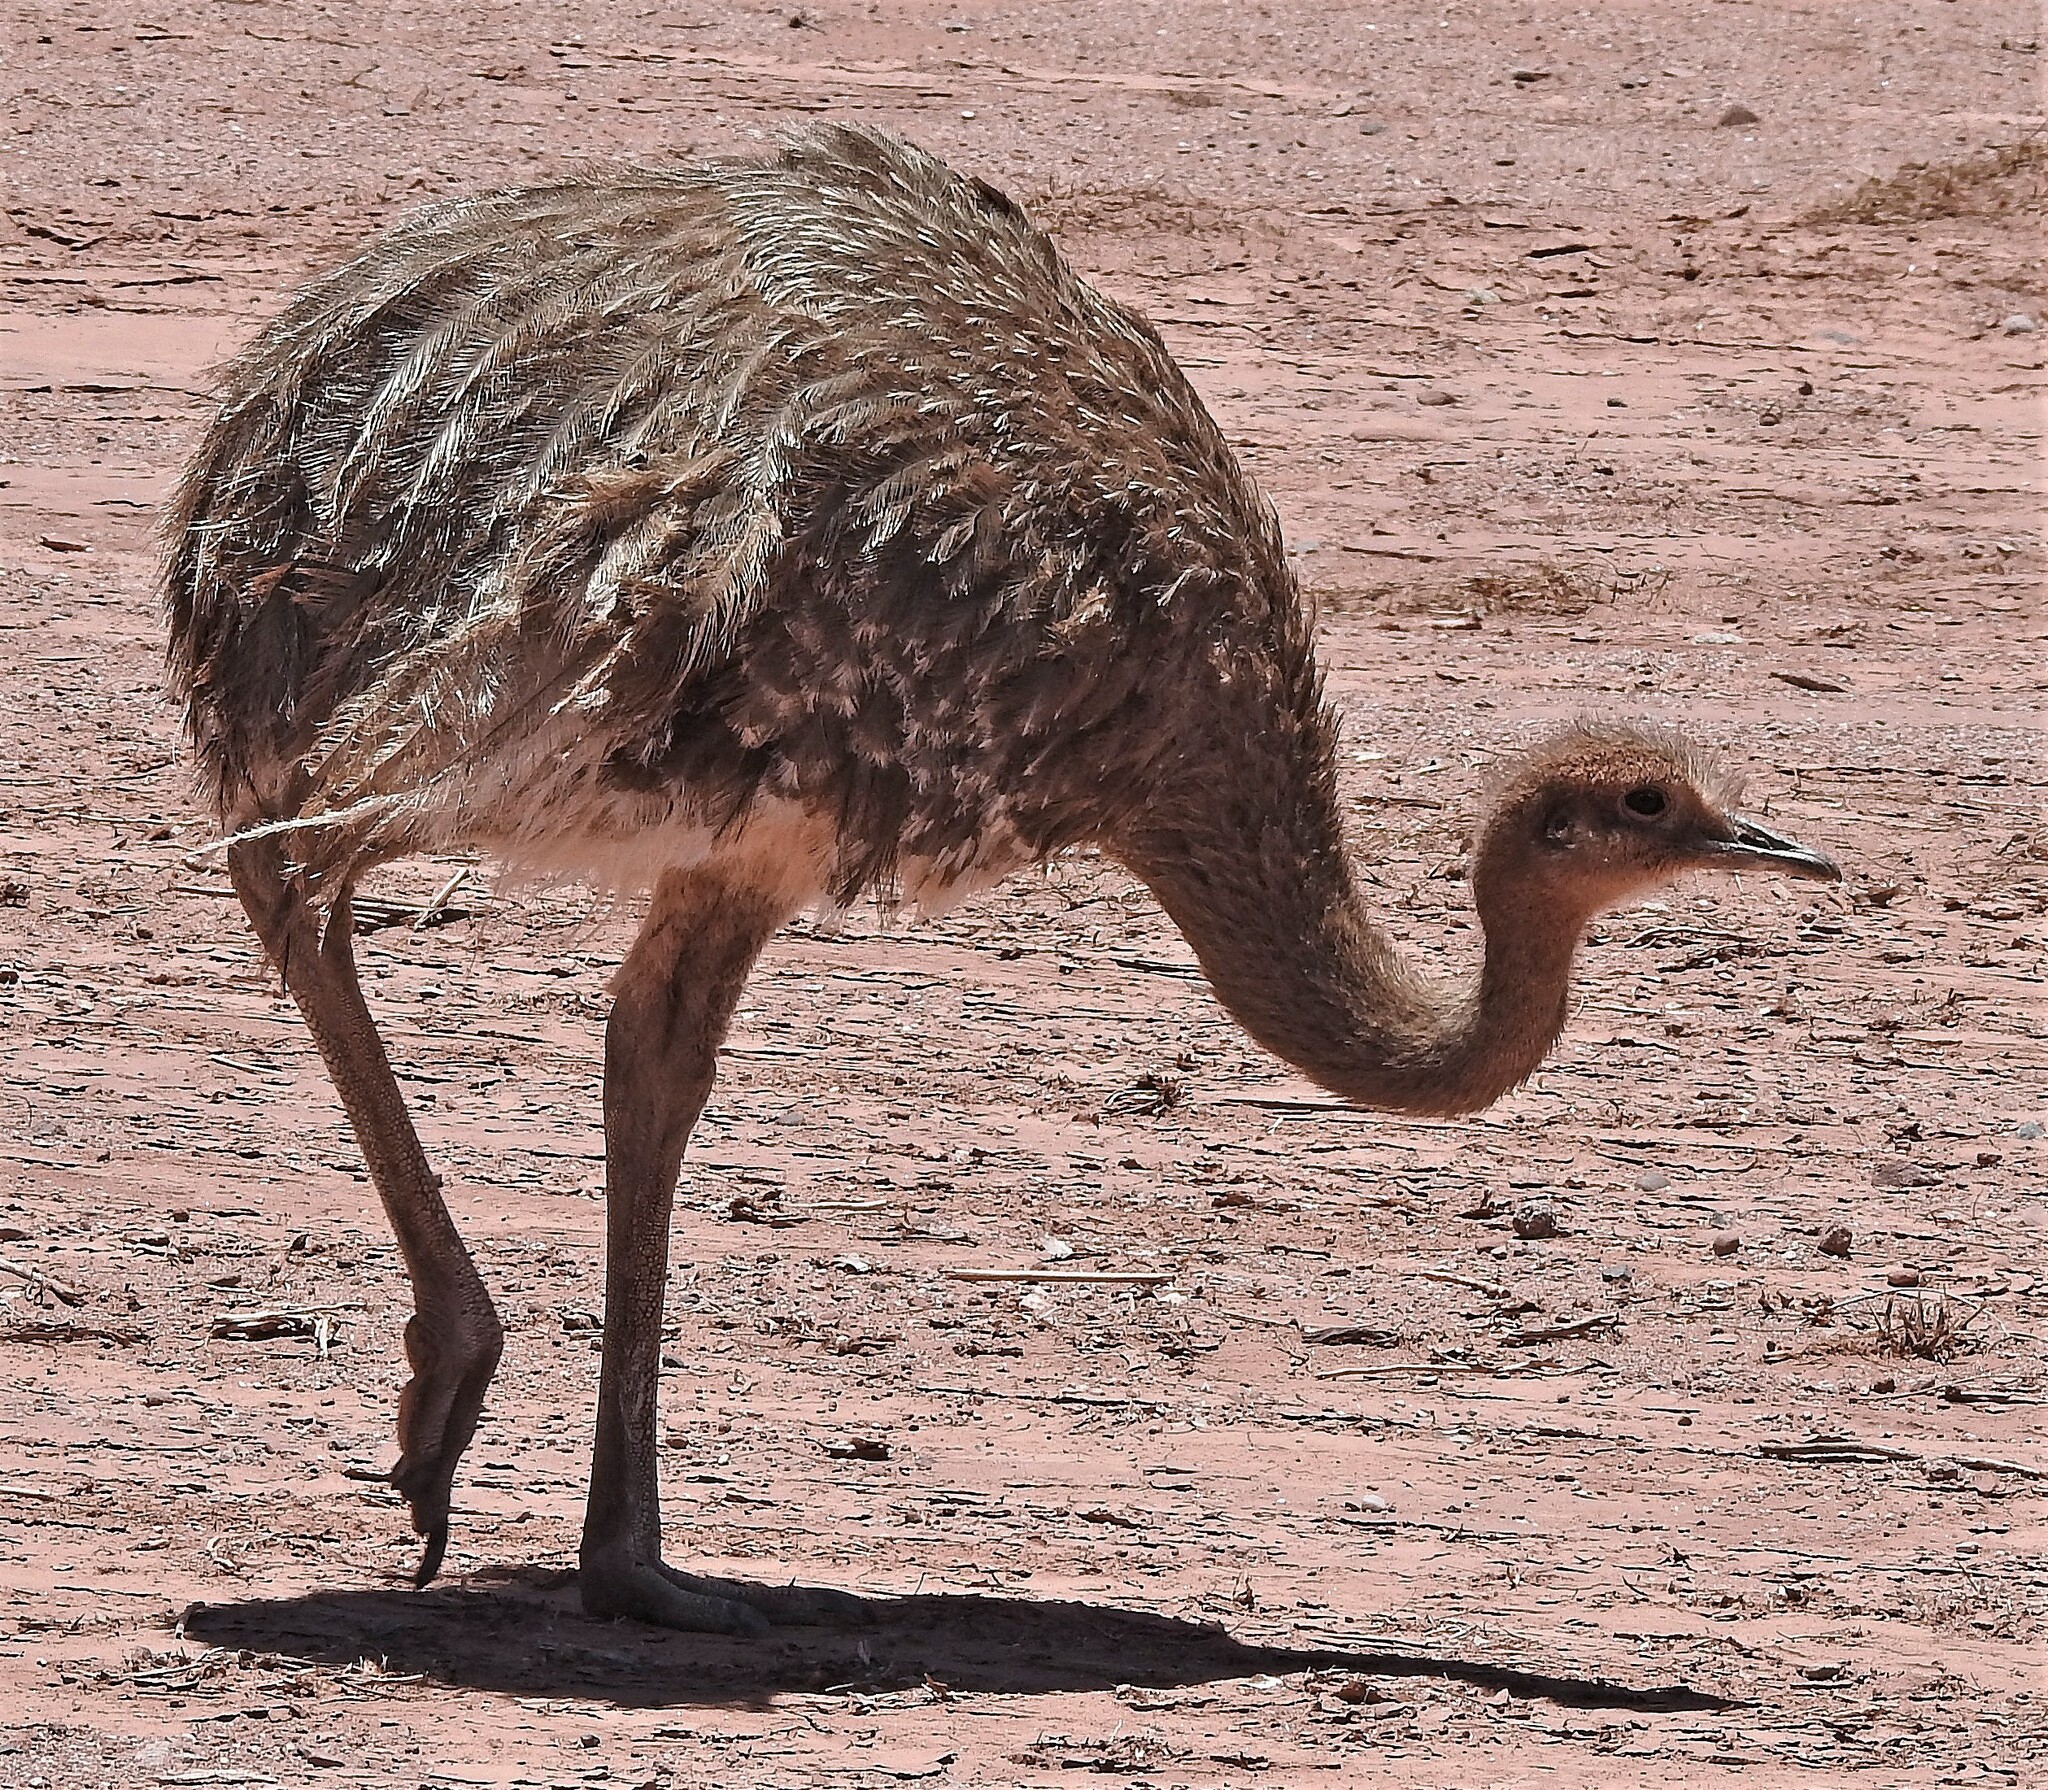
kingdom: Animalia
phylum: Chordata
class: Aves
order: Rheiformes
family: Rheidae
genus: Rhea
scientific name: Rhea pennata
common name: Lesser rhea
